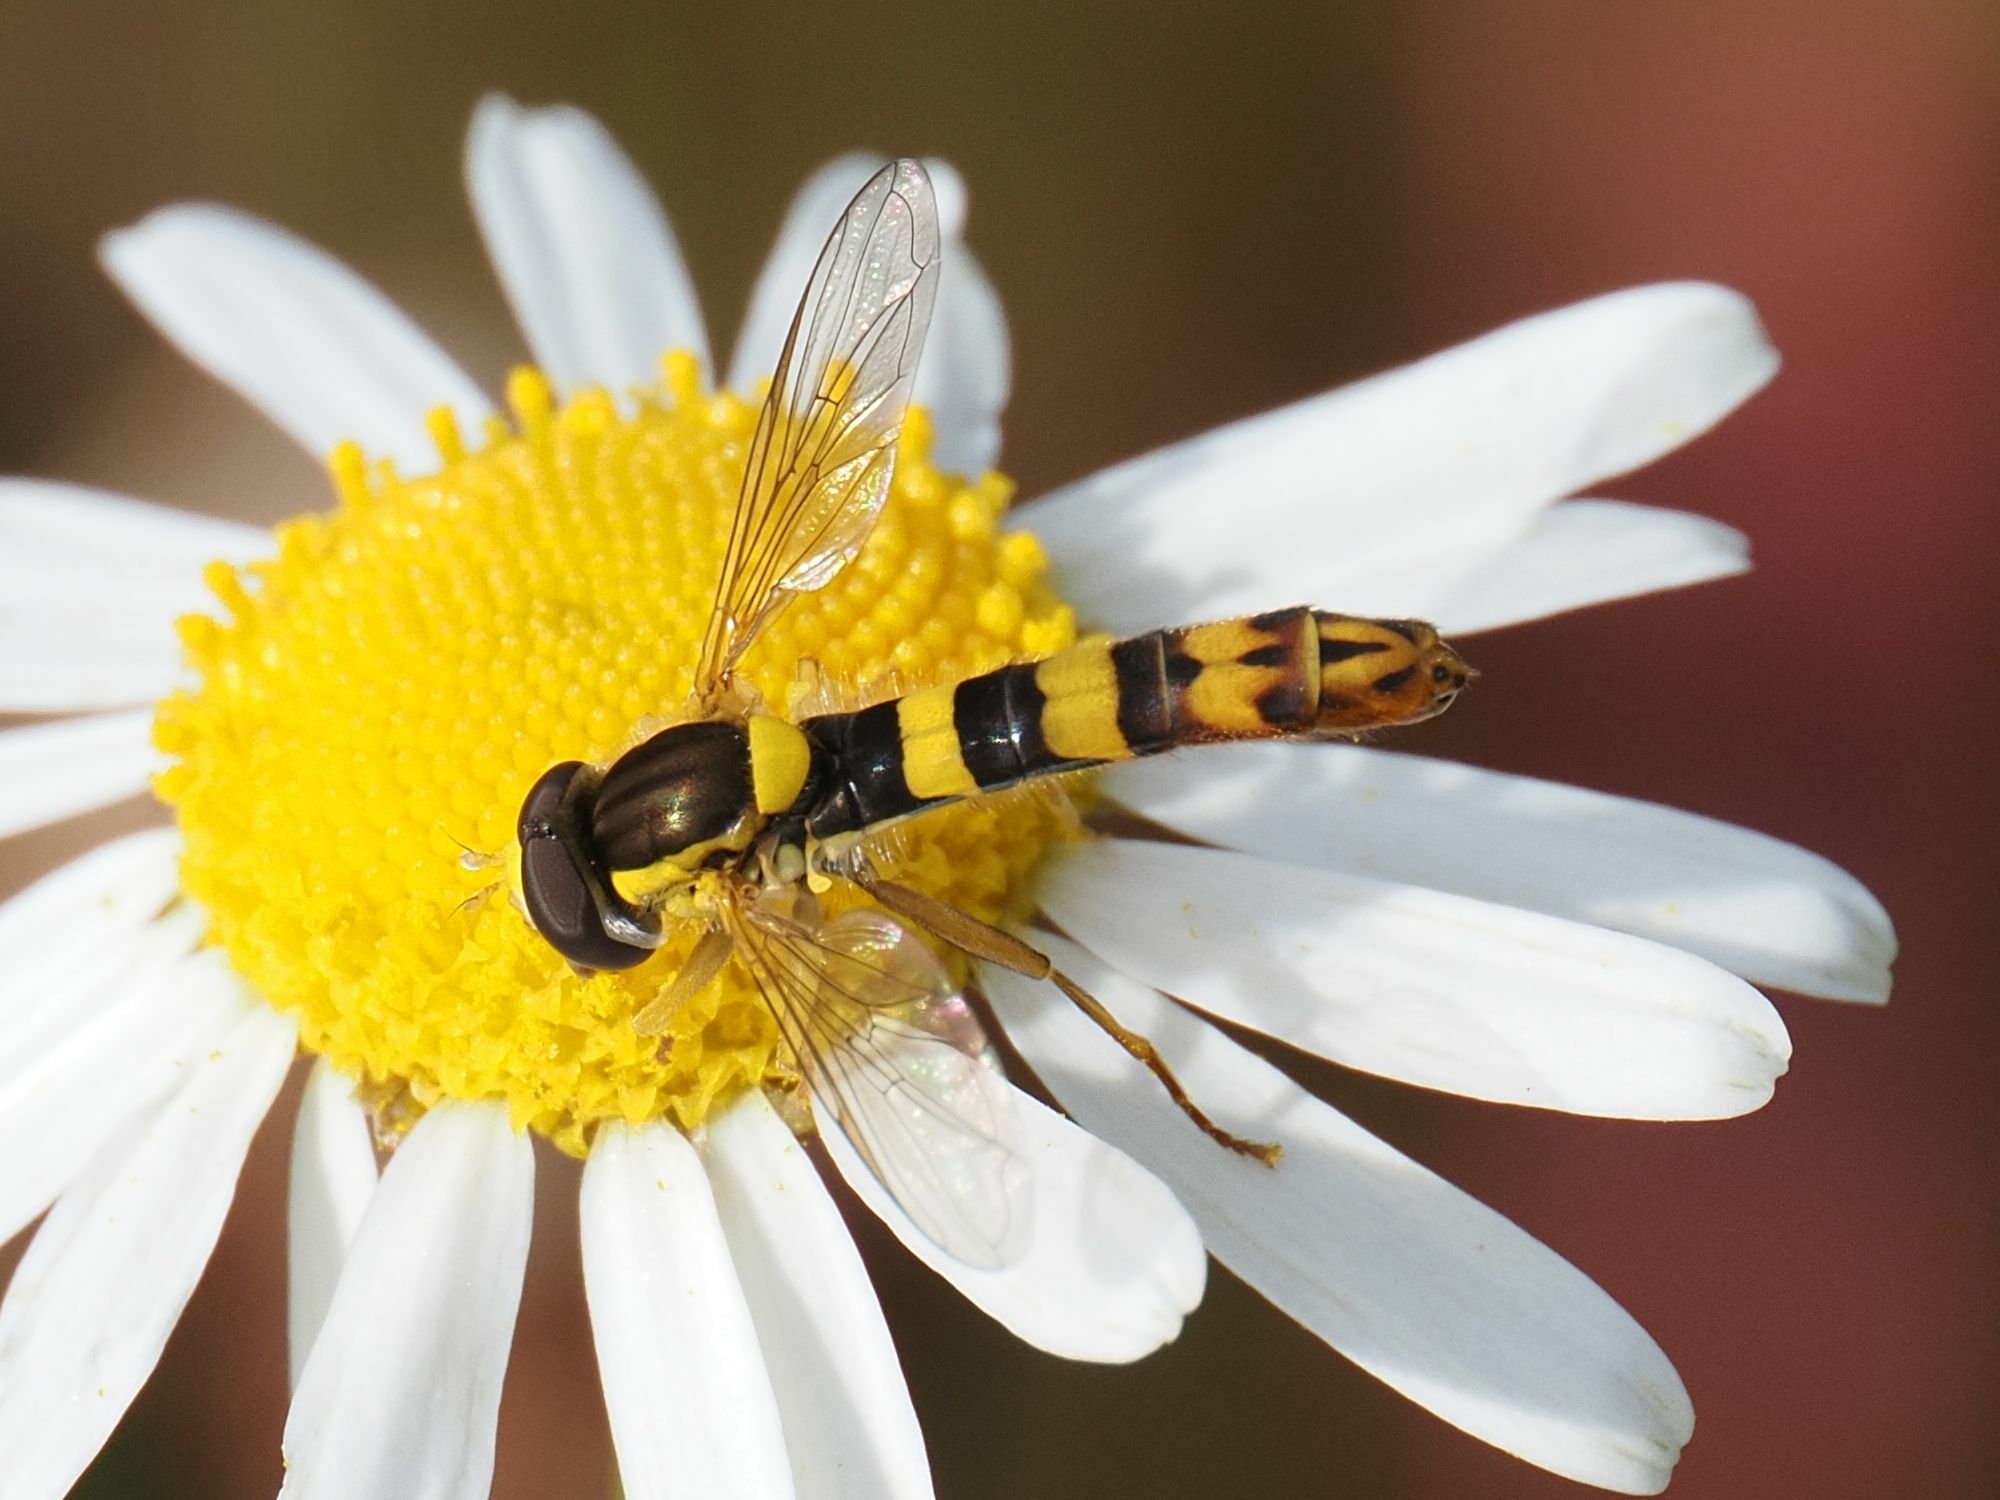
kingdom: Animalia
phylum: Arthropoda
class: Insecta
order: Diptera
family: Syrphidae
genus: Sphaerophoria
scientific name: Sphaerophoria scripta
